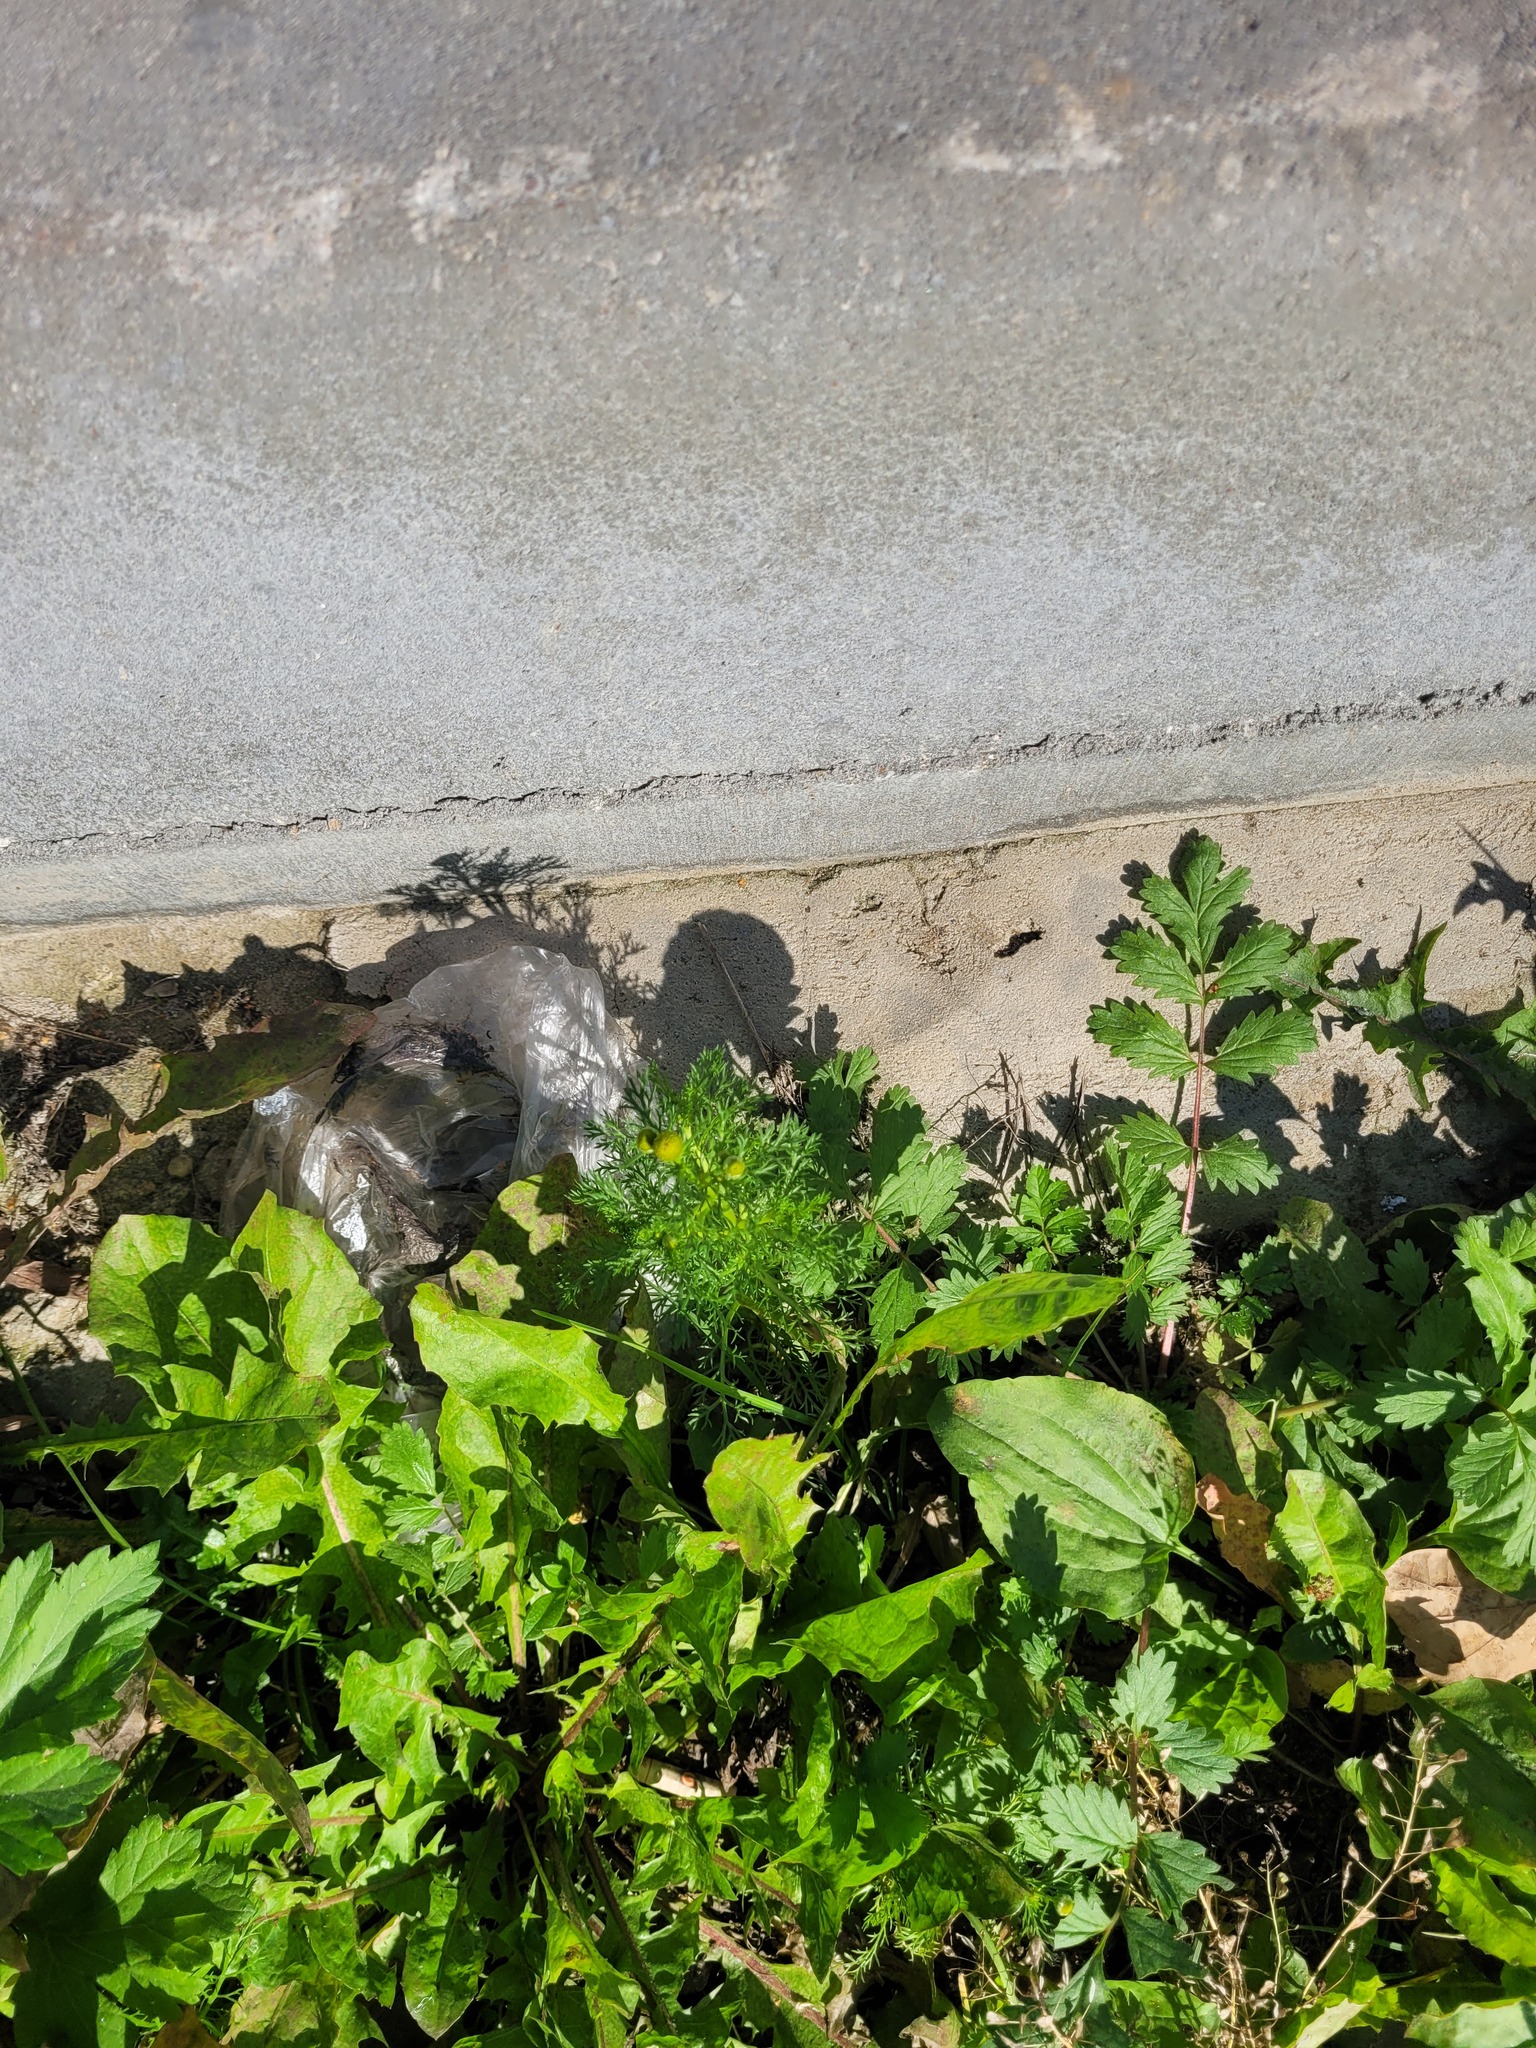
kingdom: Plantae
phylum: Tracheophyta
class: Magnoliopsida
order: Asterales
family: Asteraceae
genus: Matricaria
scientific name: Matricaria discoidea
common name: Disc mayweed
